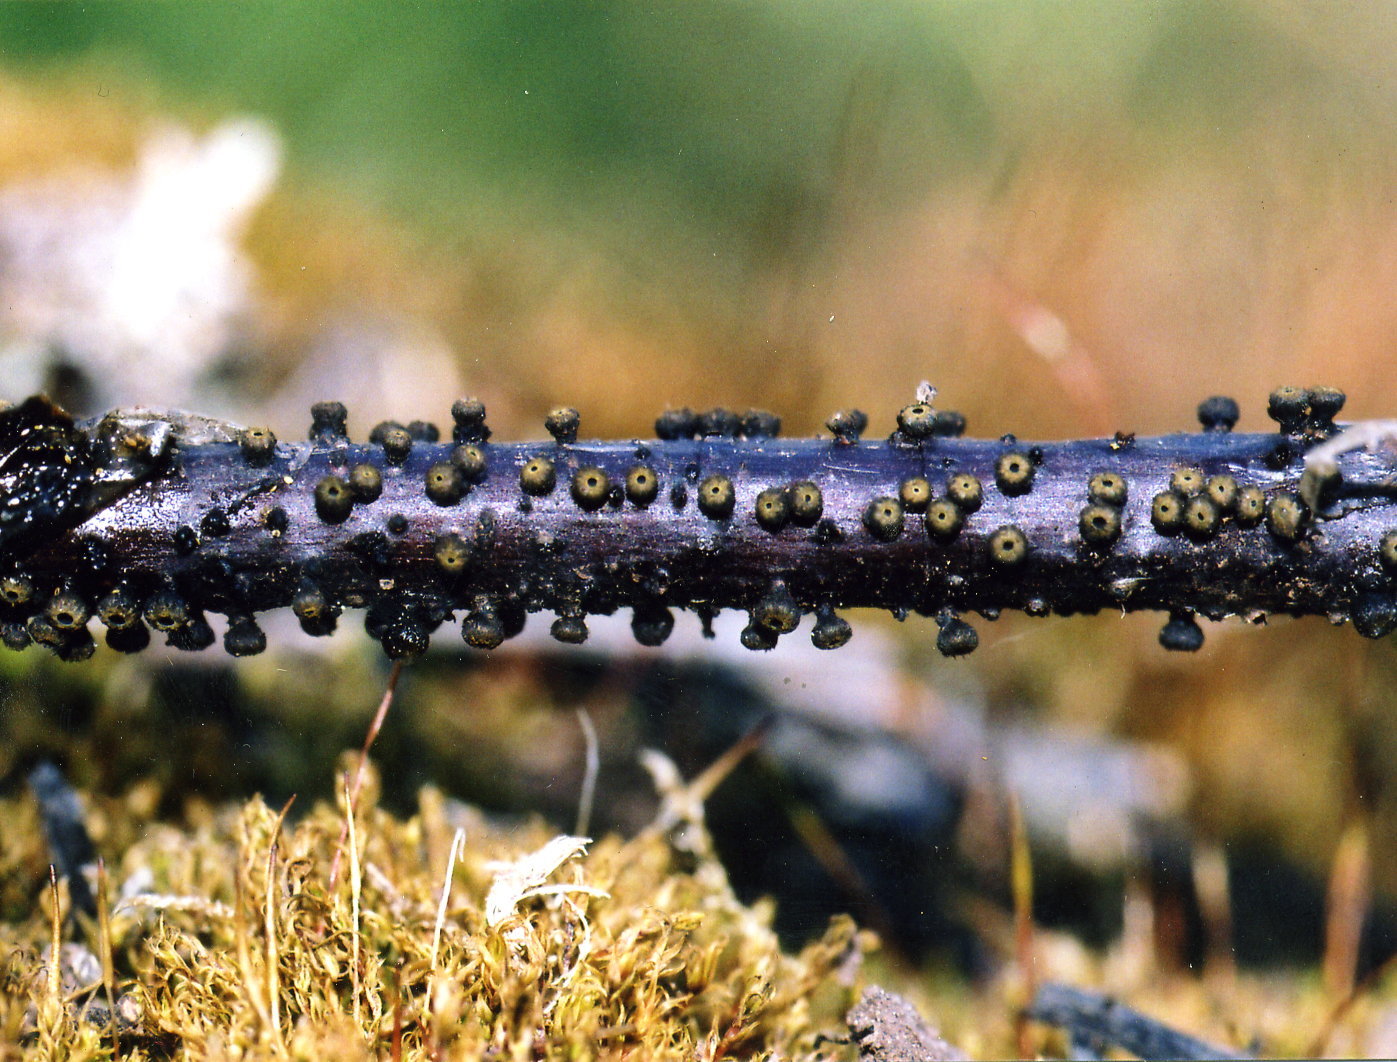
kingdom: Fungi
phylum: Ascomycota
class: Leotiomycetes
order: Helotiales
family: Godroniaceae
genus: Godronia
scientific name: Godronia uberiformis
